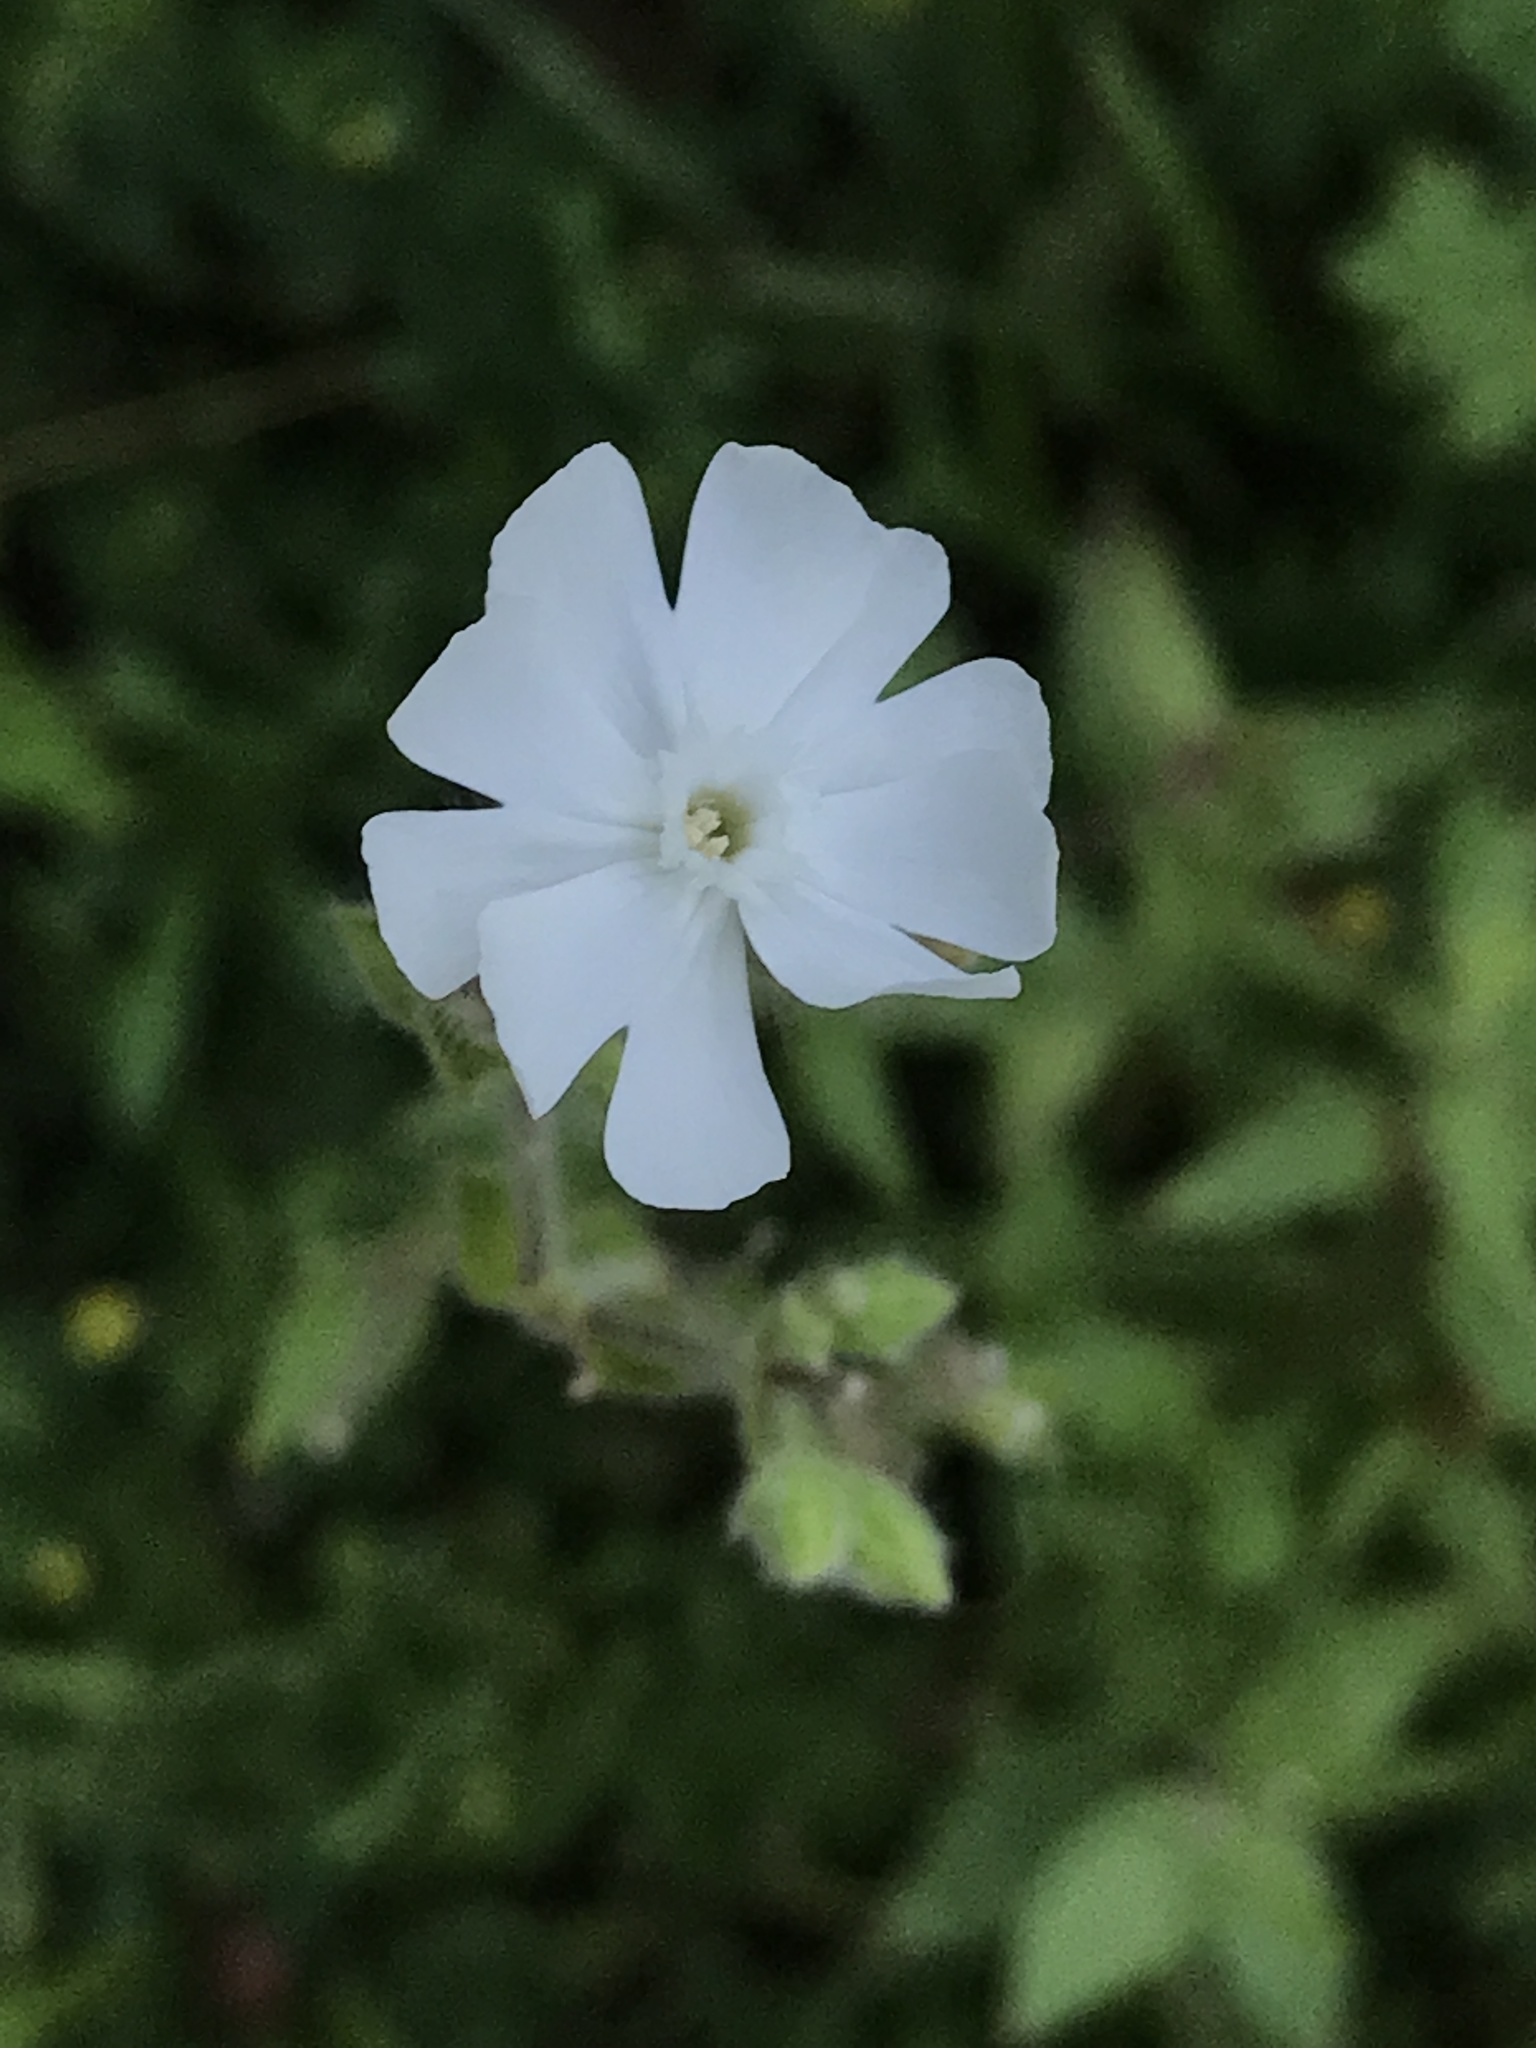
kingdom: Plantae
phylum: Tracheophyta
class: Magnoliopsida
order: Caryophyllales
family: Caryophyllaceae
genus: Silene
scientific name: Silene latifolia
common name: White campion
